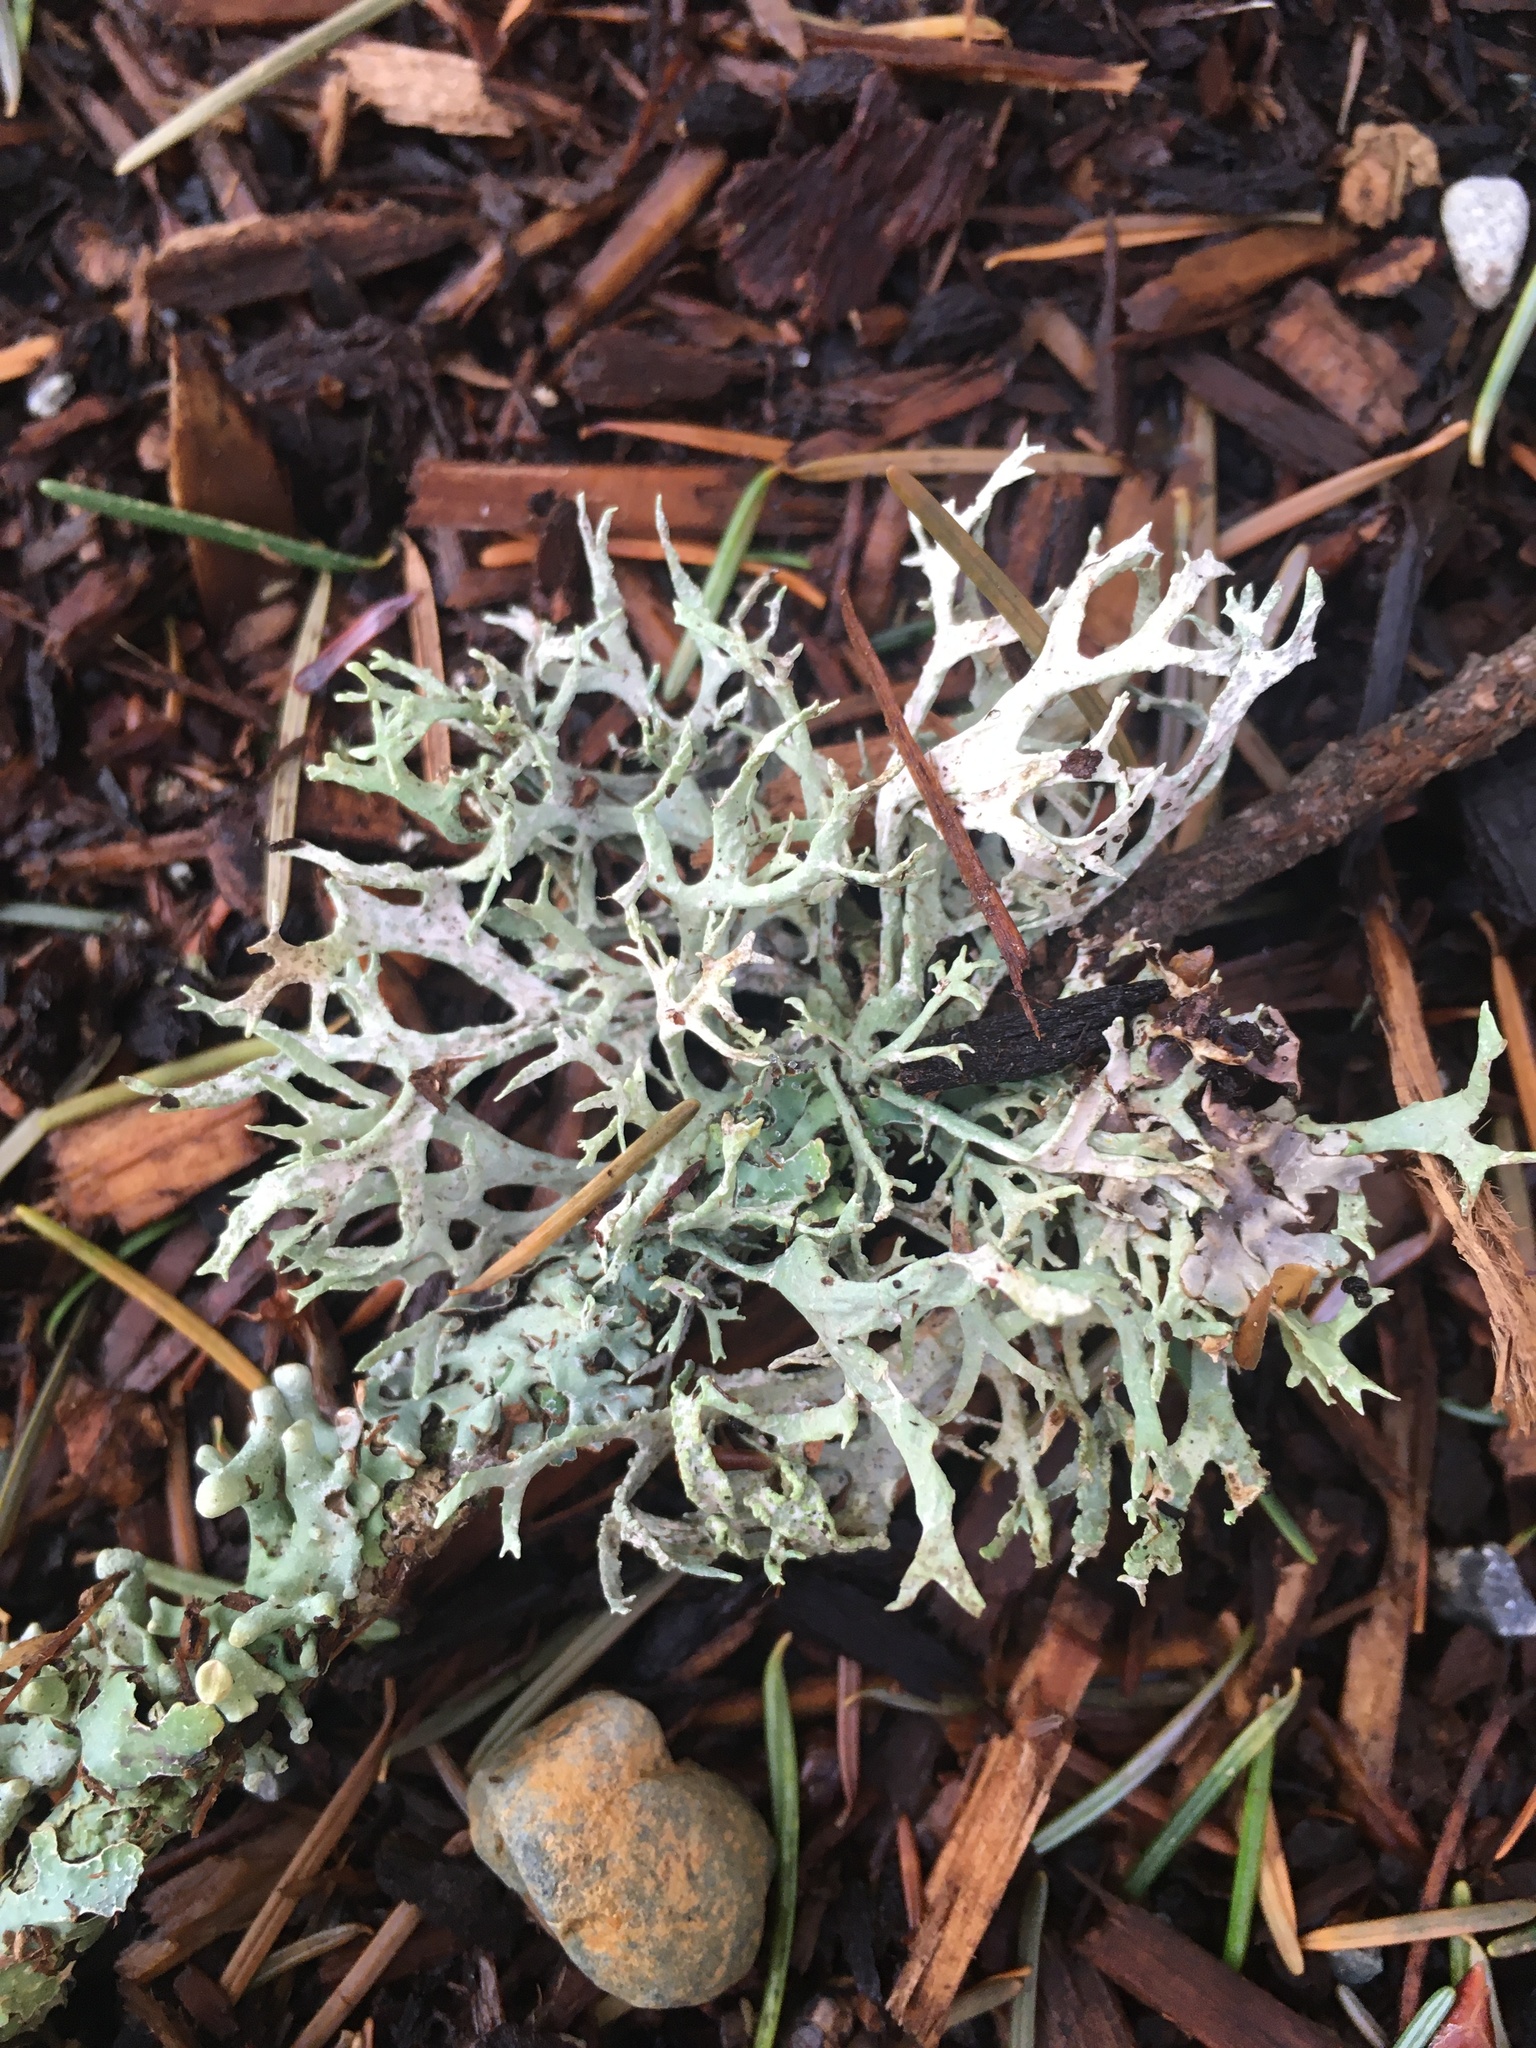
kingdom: Fungi
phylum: Ascomycota
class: Lecanoromycetes
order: Lecanorales
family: Parmeliaceae
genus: Evernia
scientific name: Evernia prunastri
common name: Oak moss
